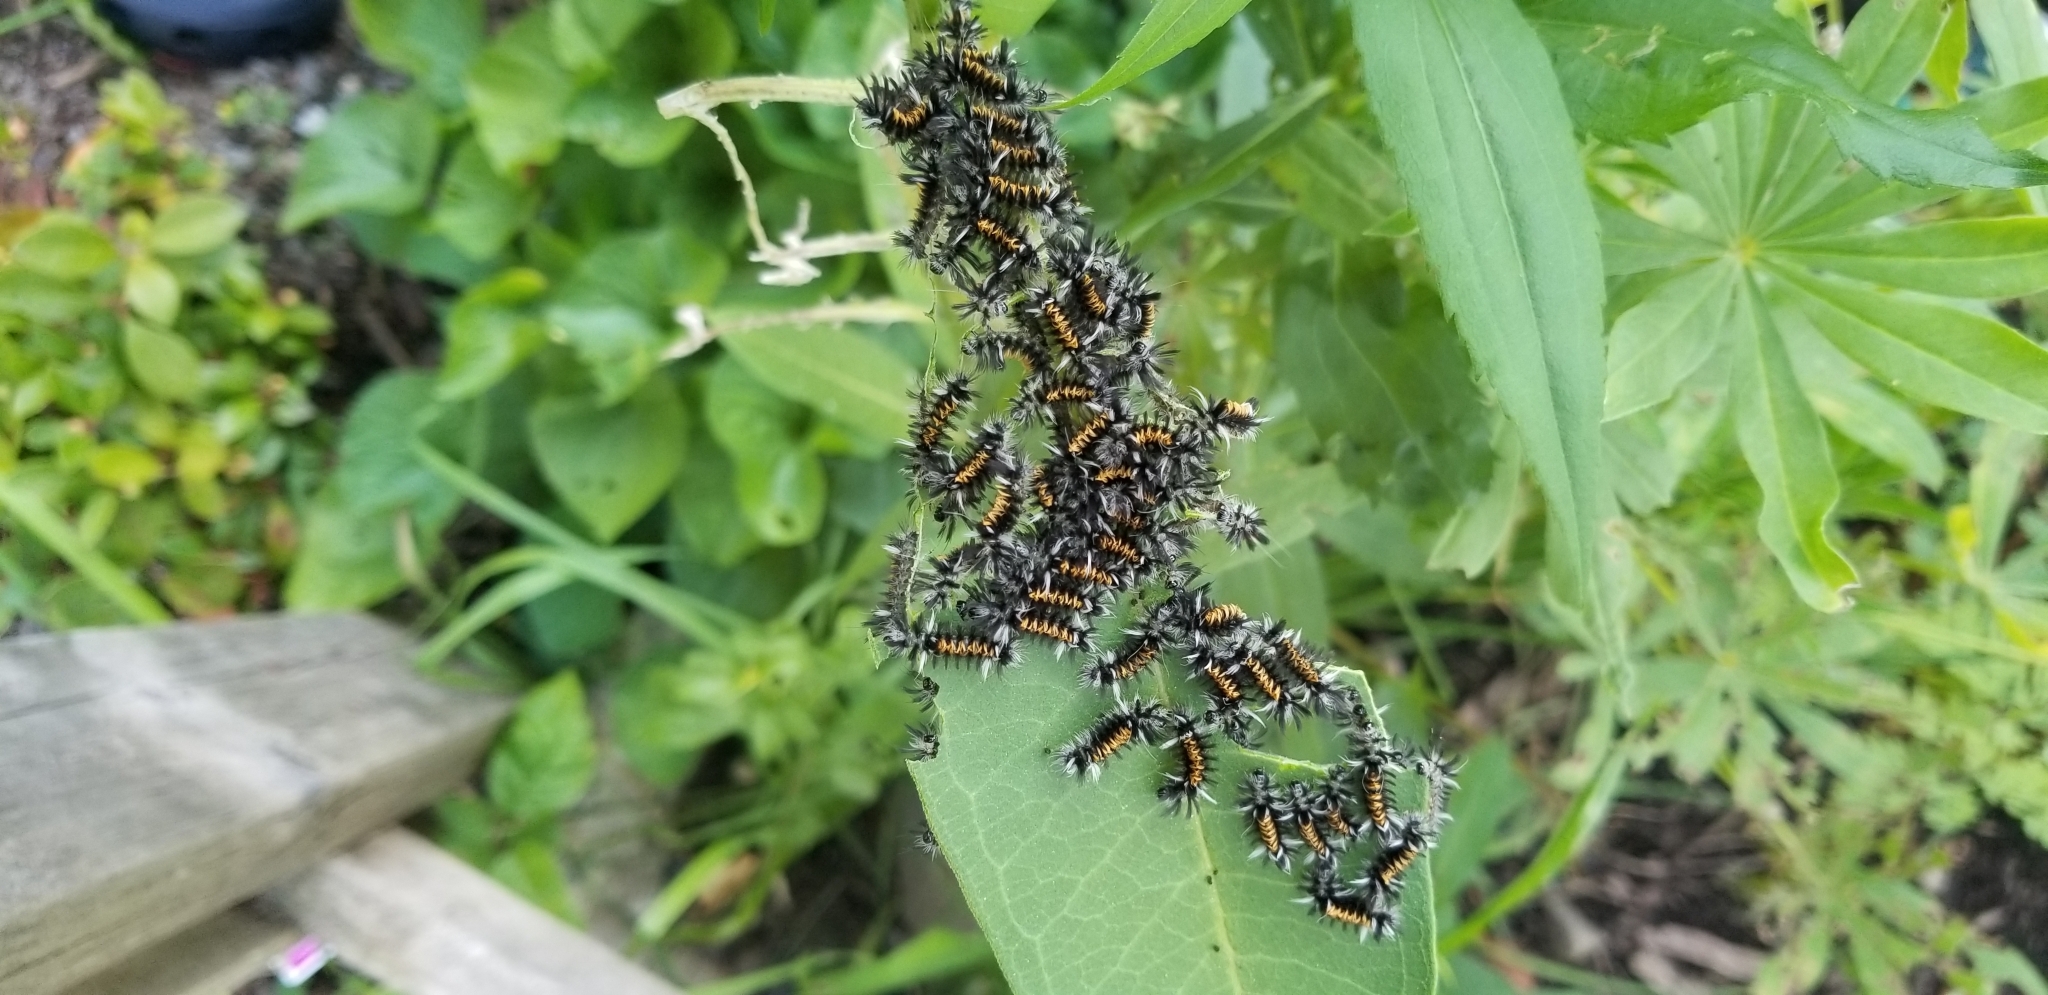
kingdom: Animalia
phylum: Arthropoda
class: Insecta
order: Lepidoptera
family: Erebidae
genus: Euchaetes
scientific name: Euchaetes egle
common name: Milkweed tussock moth
